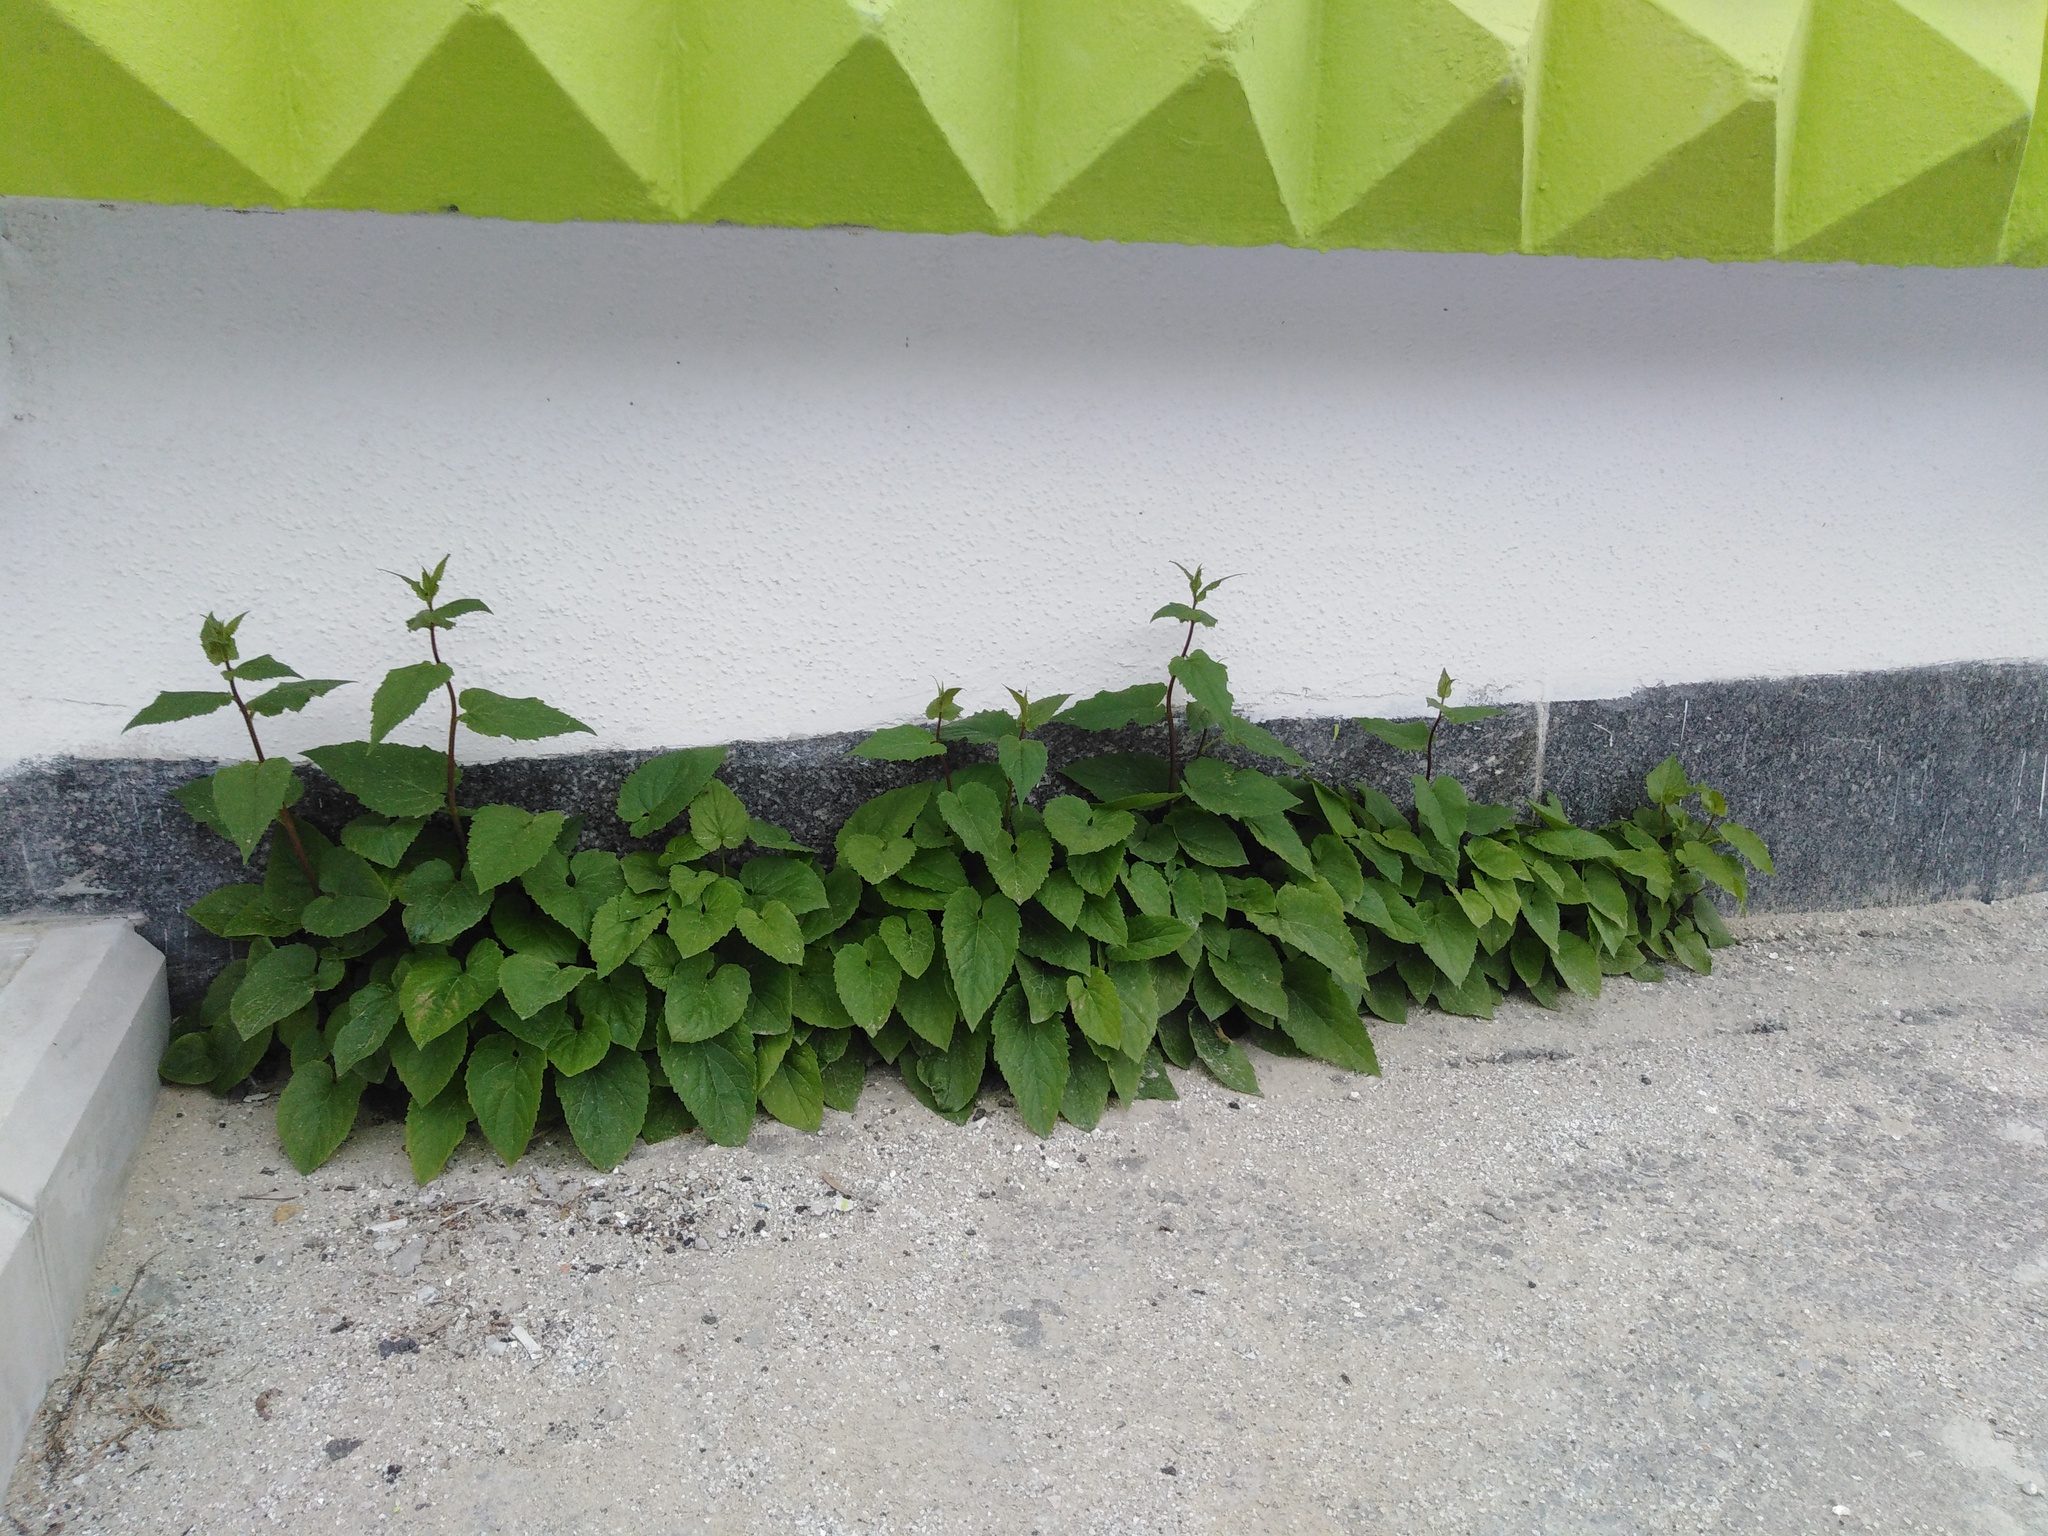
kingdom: Plantae
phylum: Tracheophyta
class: Magnoliopsida
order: Asterales
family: Campanulaceae
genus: Campanula
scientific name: Campanula rapunculoides
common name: Creeping bellflower
